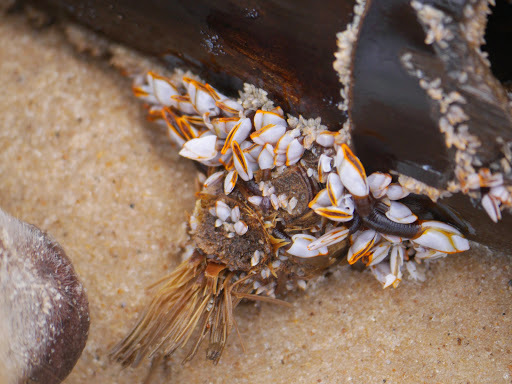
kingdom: Animalia
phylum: Arthropoda
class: Maxillopoda
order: Pedunculata
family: Lepadidae
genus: Lepas
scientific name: Lepas anserifera
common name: Goose barnacle
